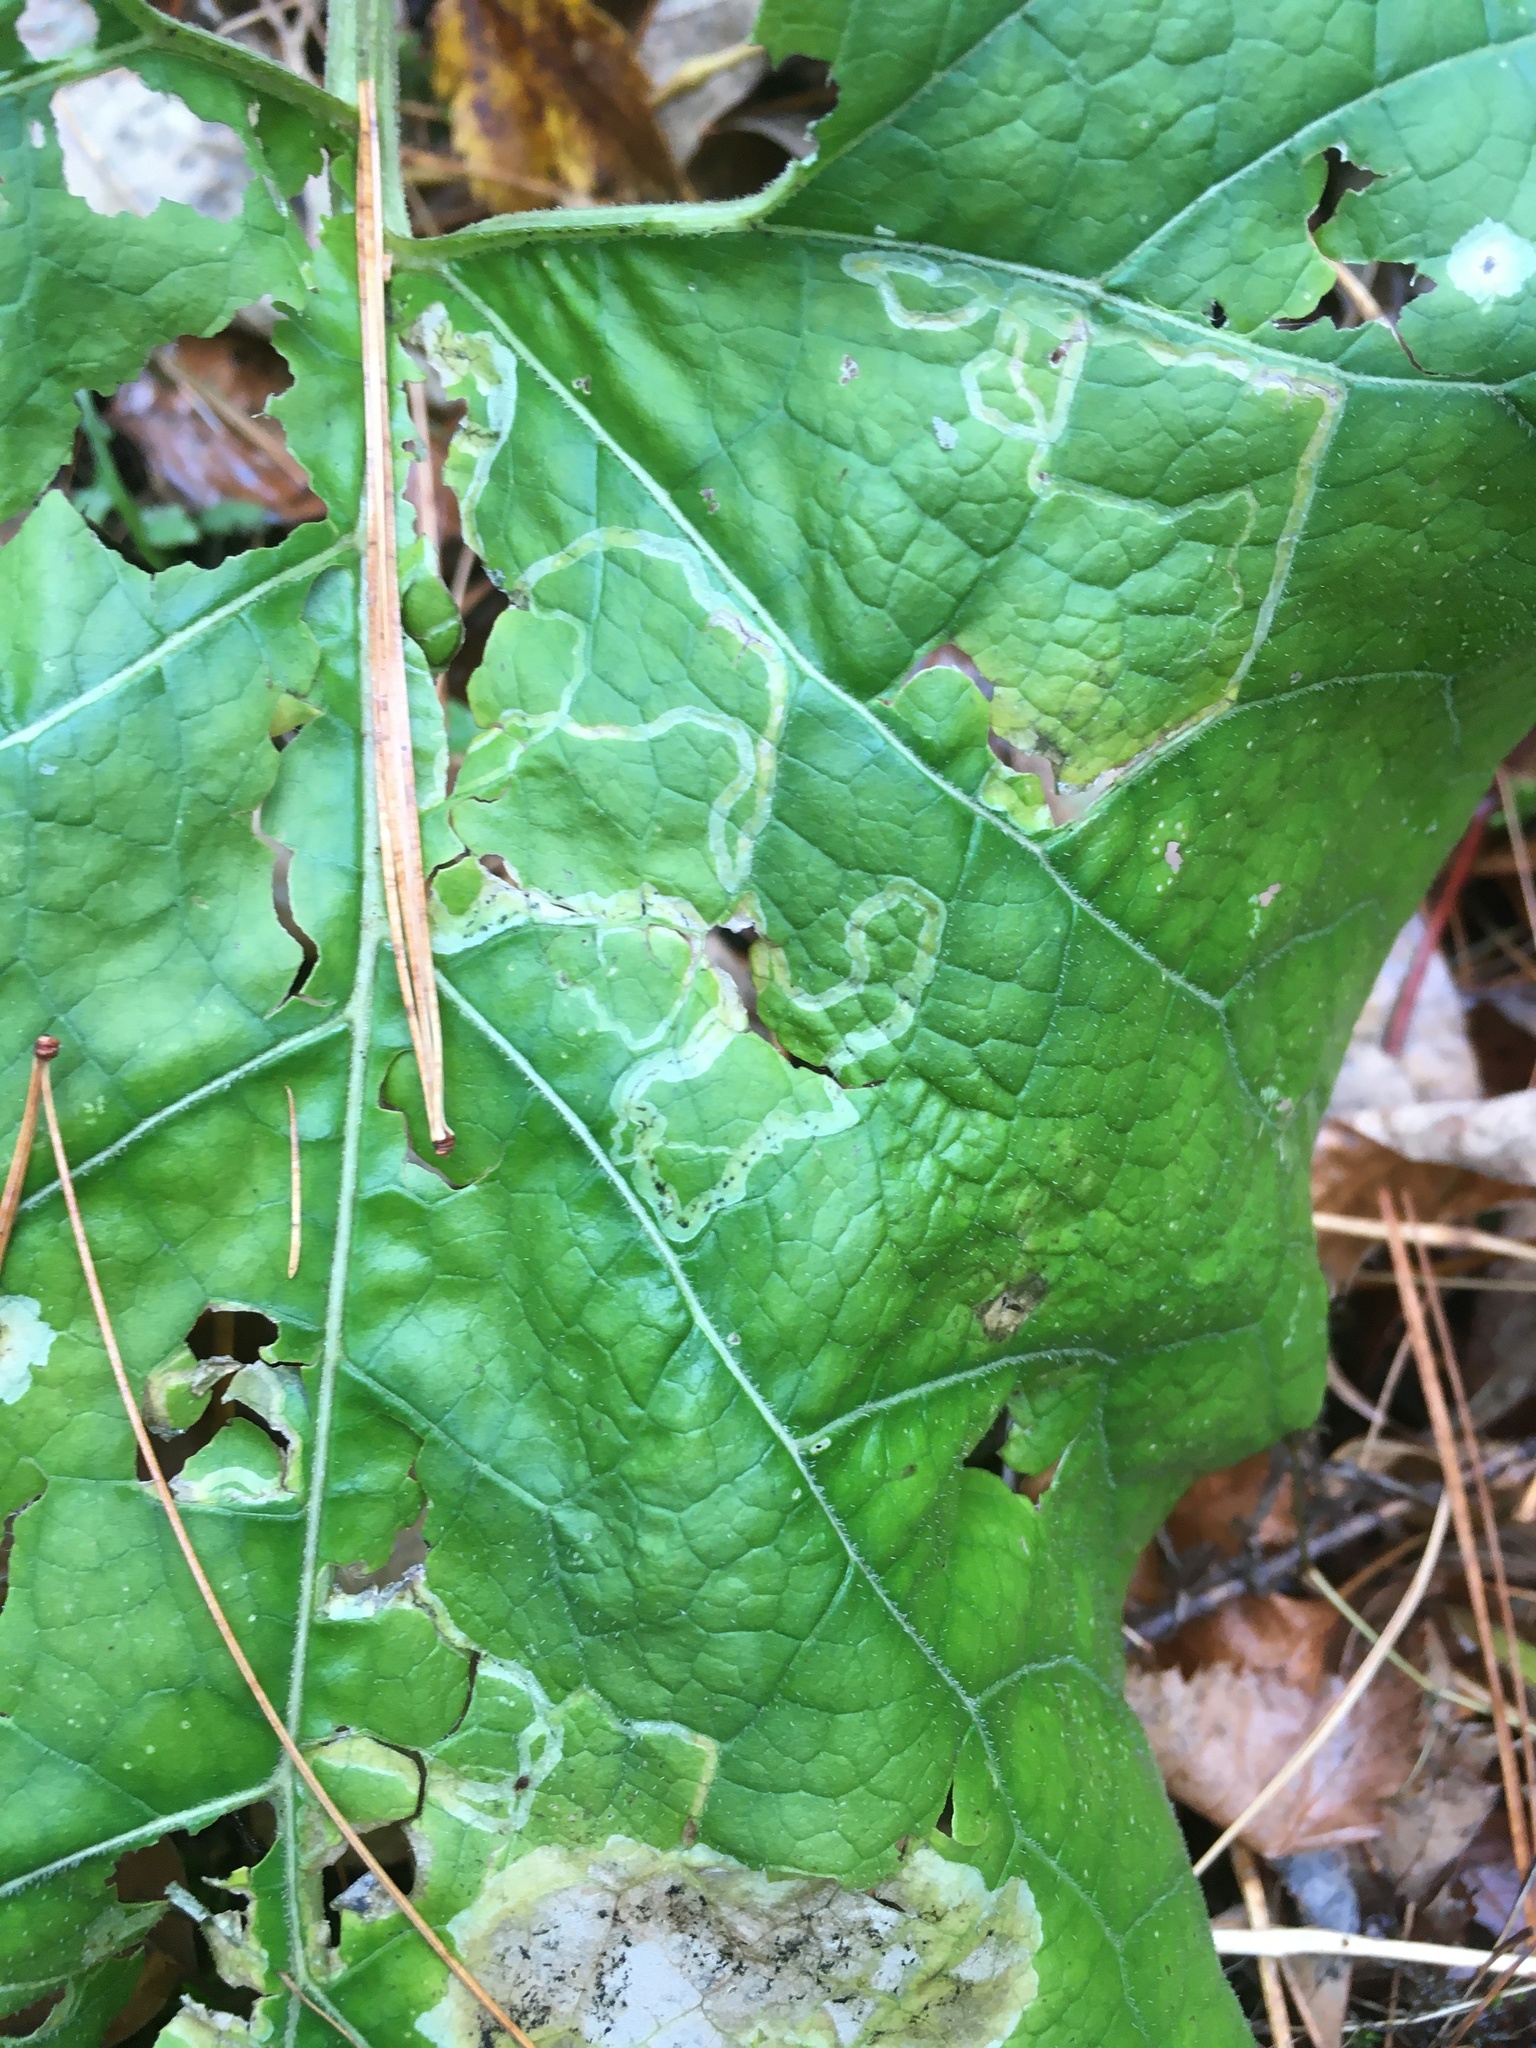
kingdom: Animalia
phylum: Arthropoda
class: Insecta
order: Diptera
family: Agromyzidae
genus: Liriomyza
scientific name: Liriomyza arctii
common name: Burdock leafminer
